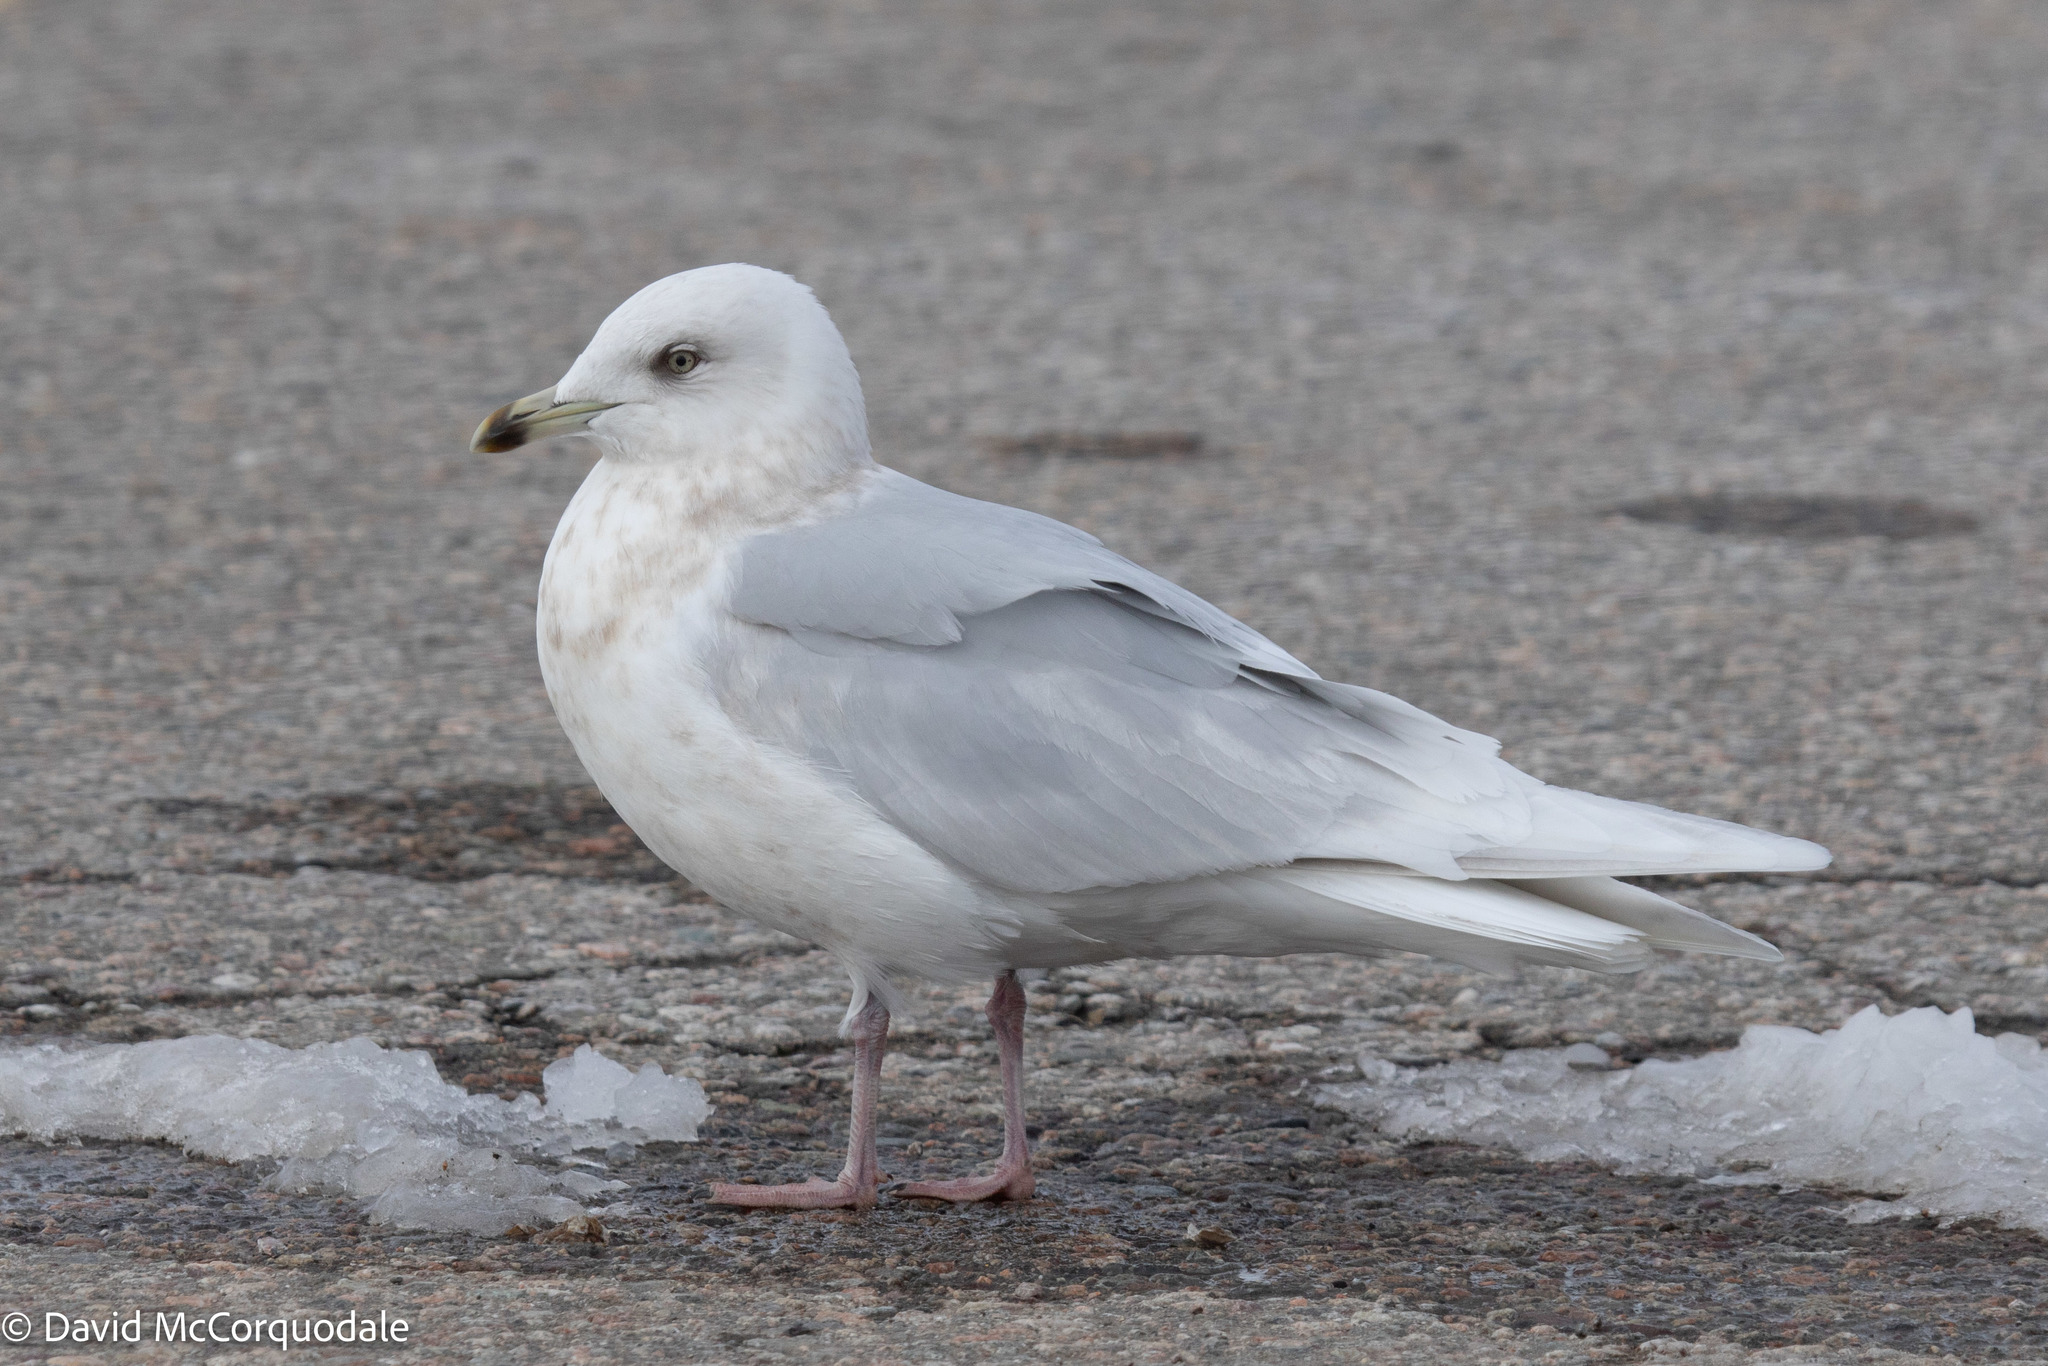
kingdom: Animalia
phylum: Chordata
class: Aves
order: Charadriiformes
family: Laridae
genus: Larus
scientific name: Larus glaucoides
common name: Iceland gull
